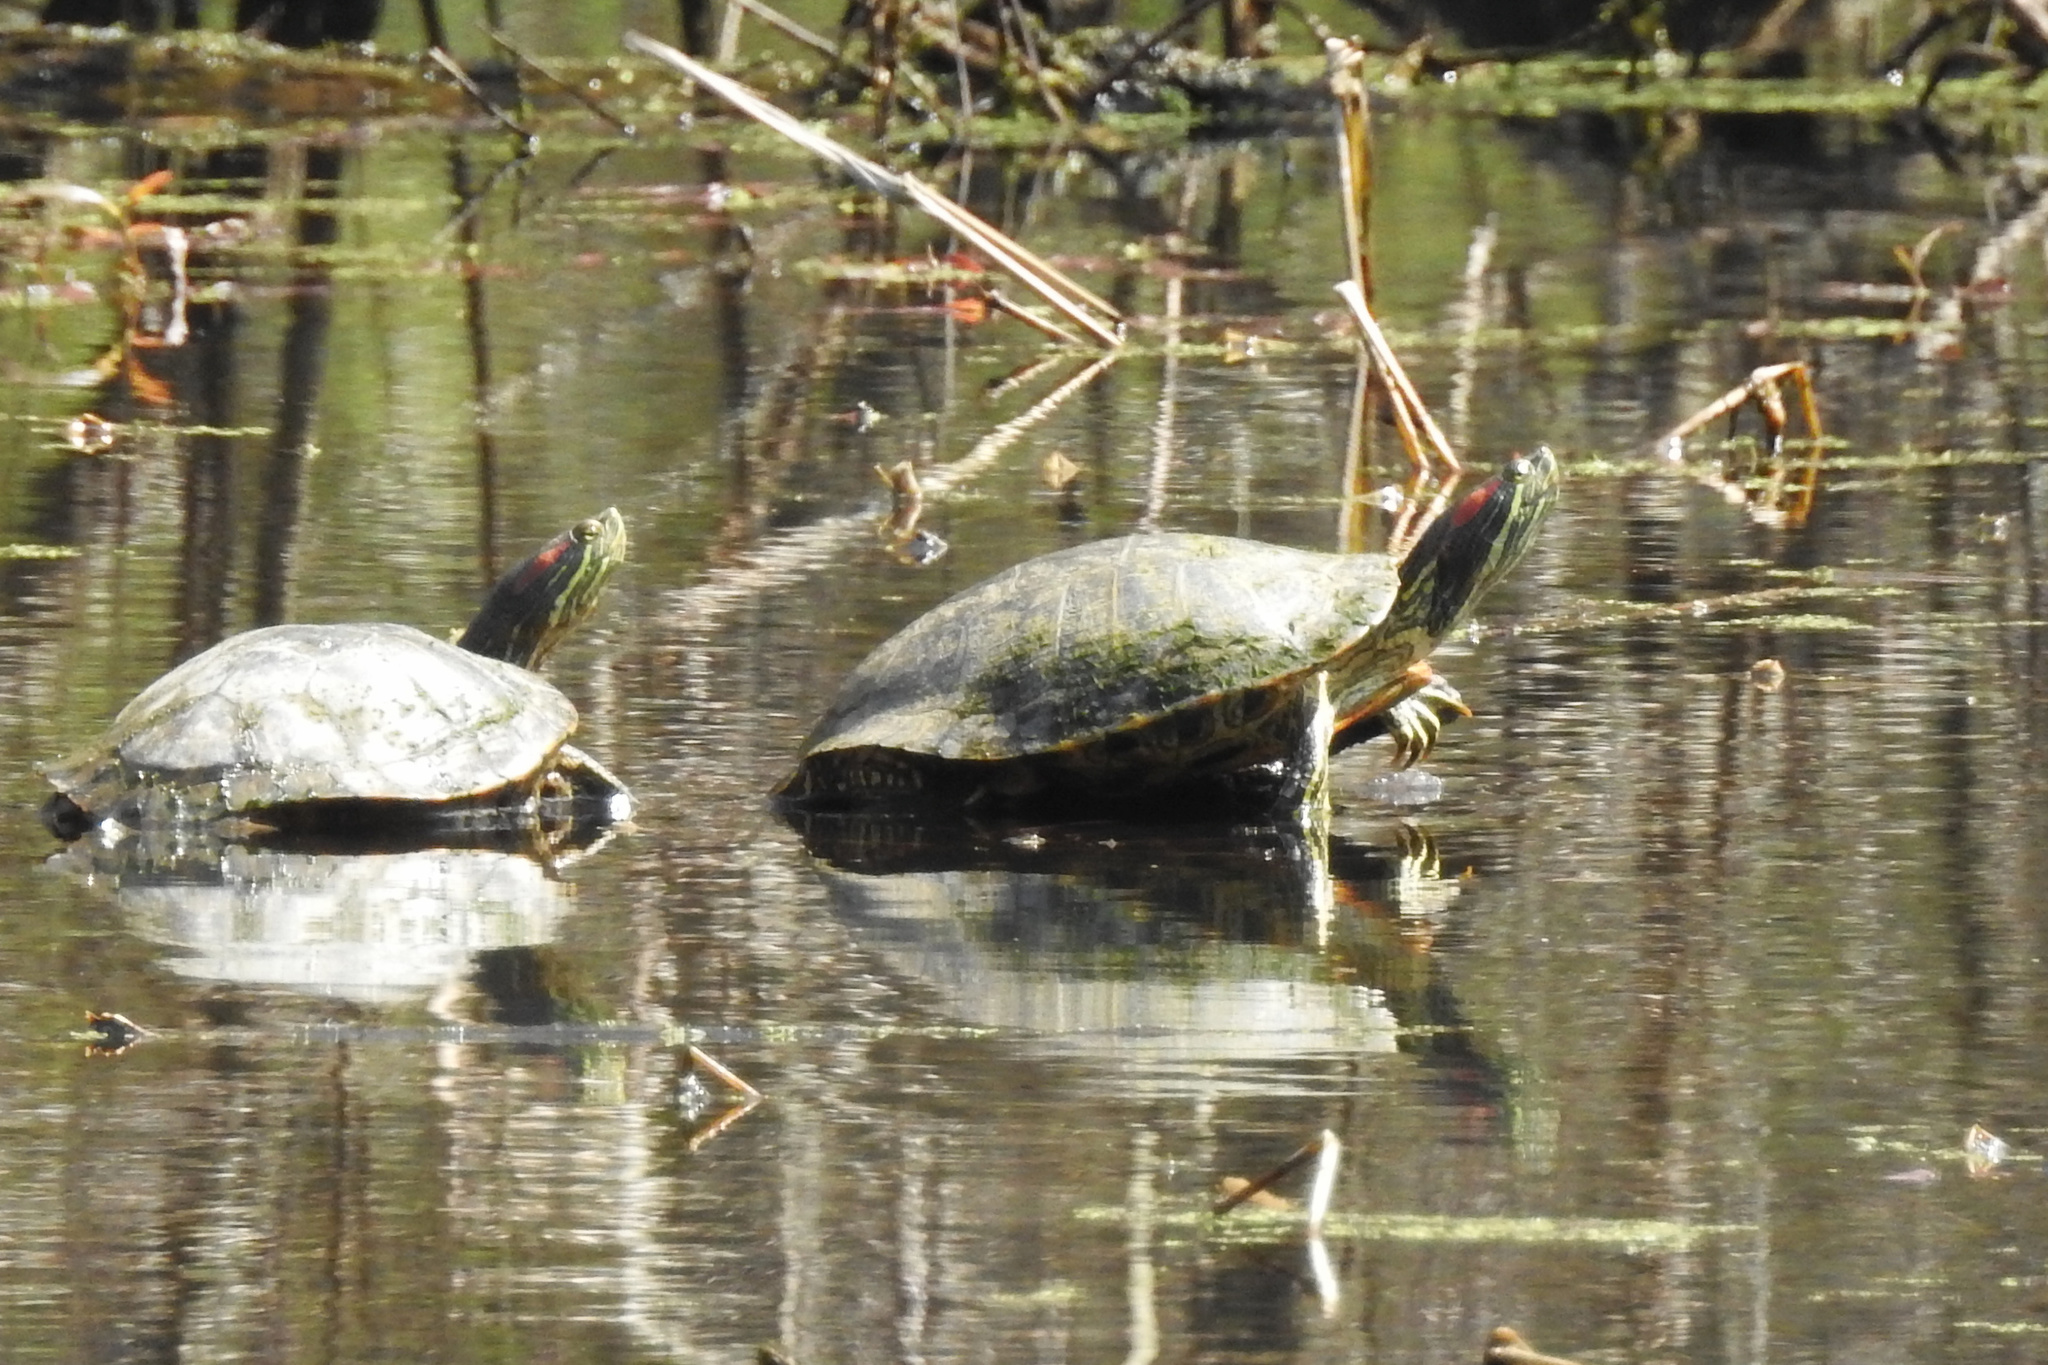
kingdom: Animalia
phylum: Chordata
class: Testudines
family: Emydidae
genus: Trachemys
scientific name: Trachemys scripta
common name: Slider
